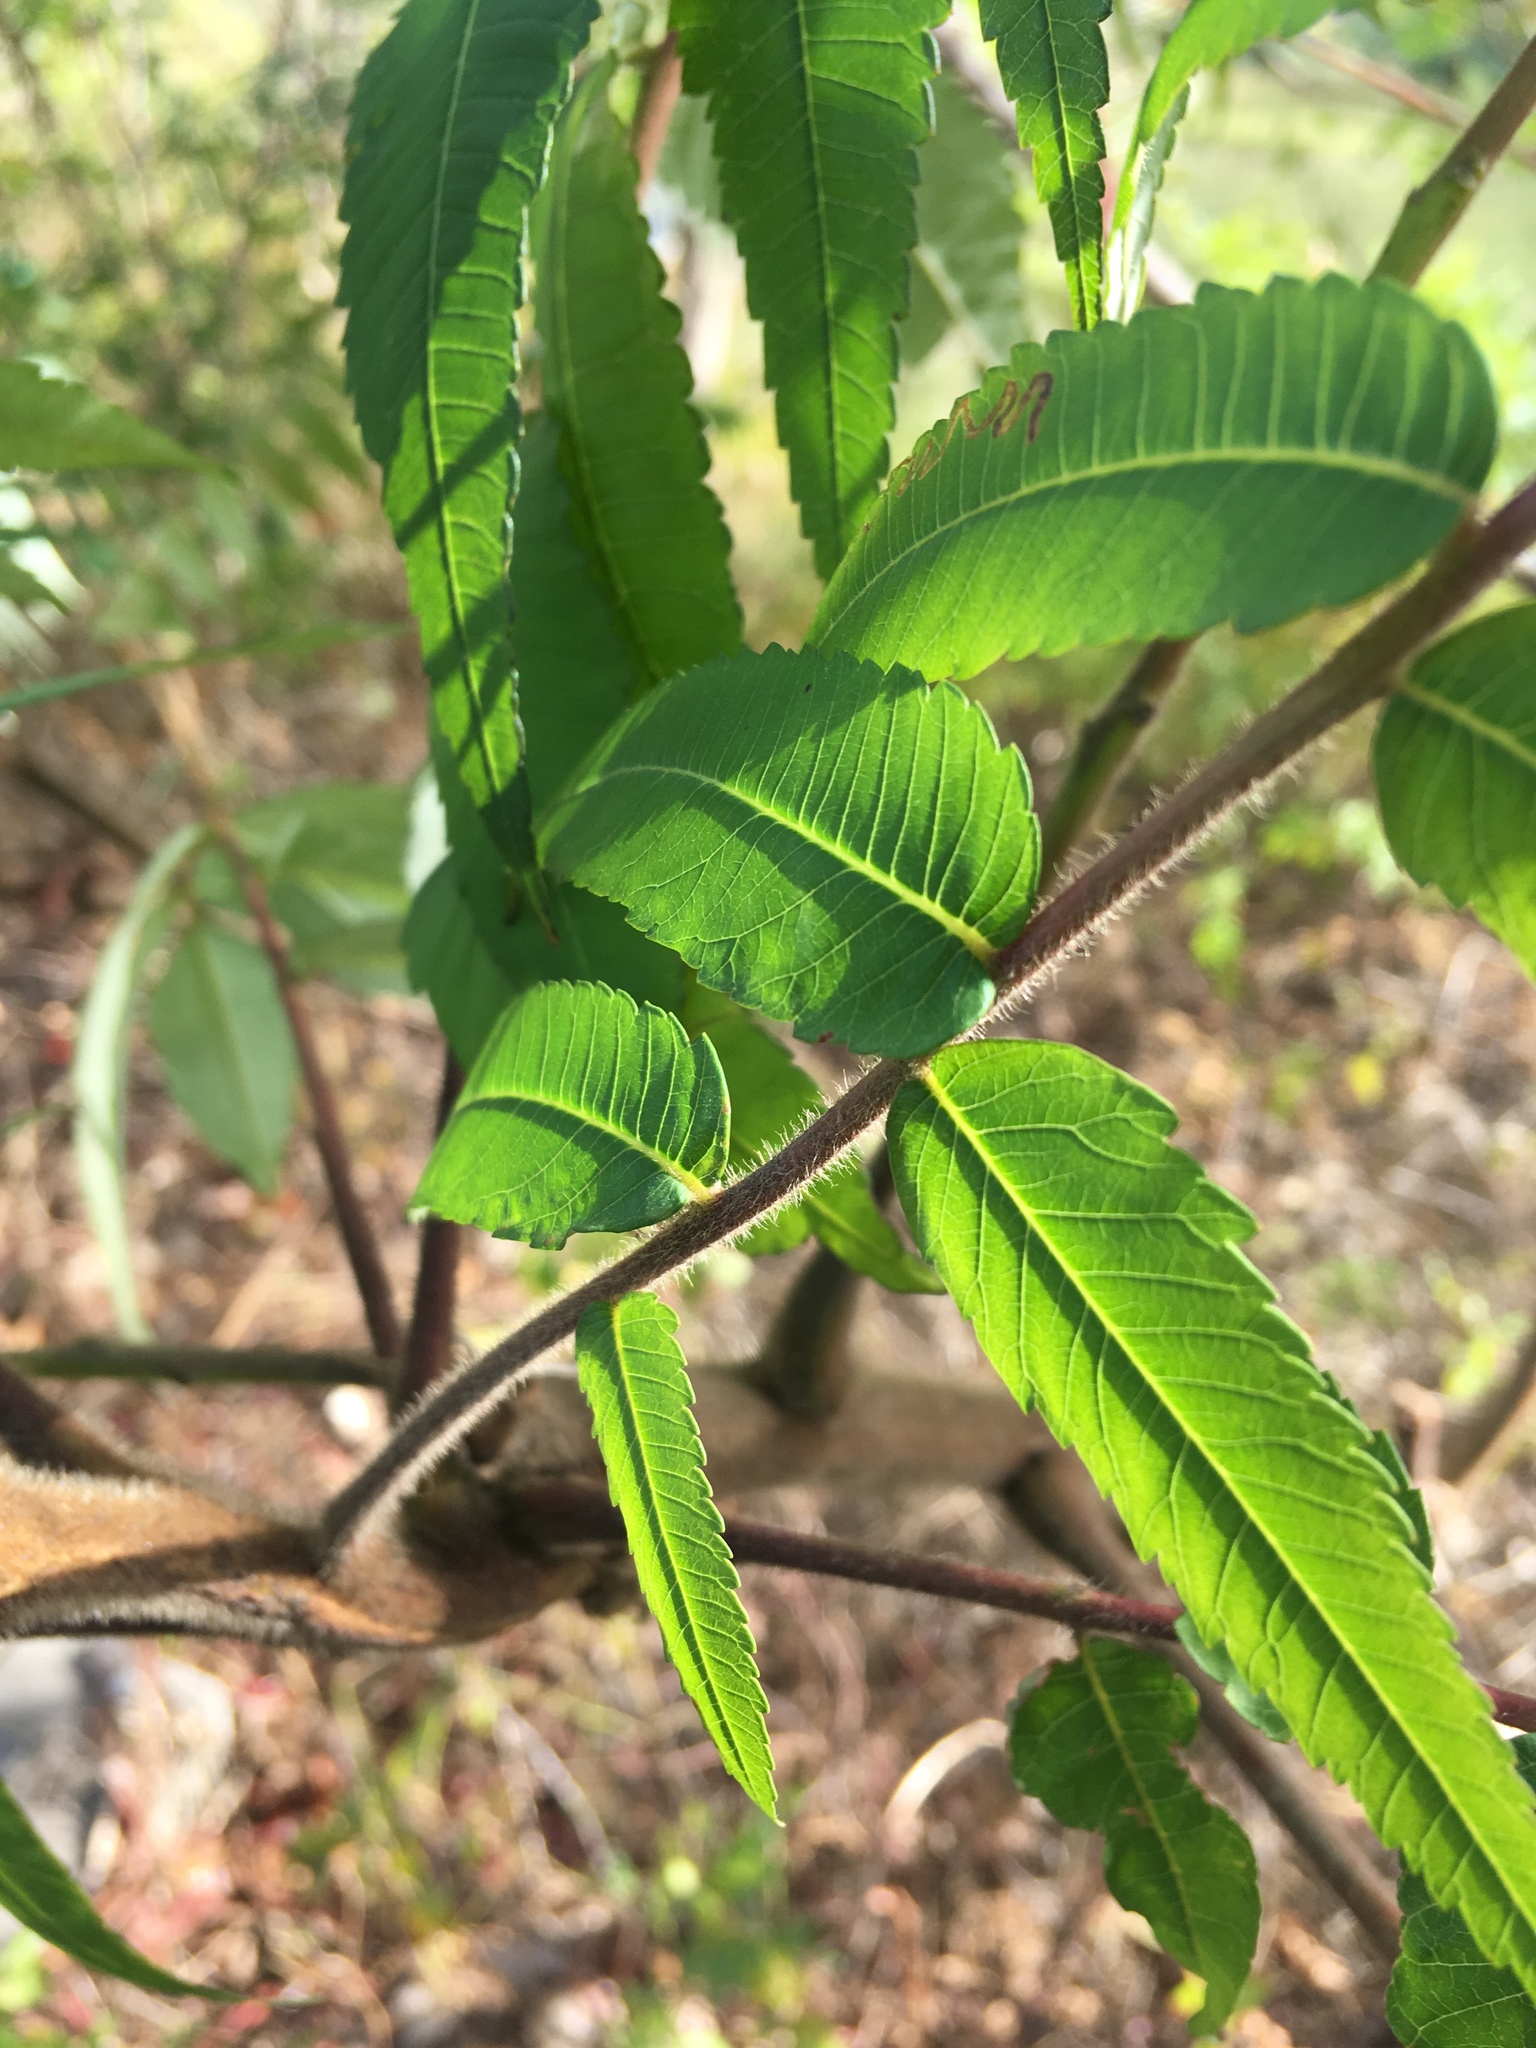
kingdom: Plantae
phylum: Tracheophyta
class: Magnoliopsida
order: Sapindales
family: Anacardiaceae
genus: Rhus
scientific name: Rhus typhina
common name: Staghorn sumac
